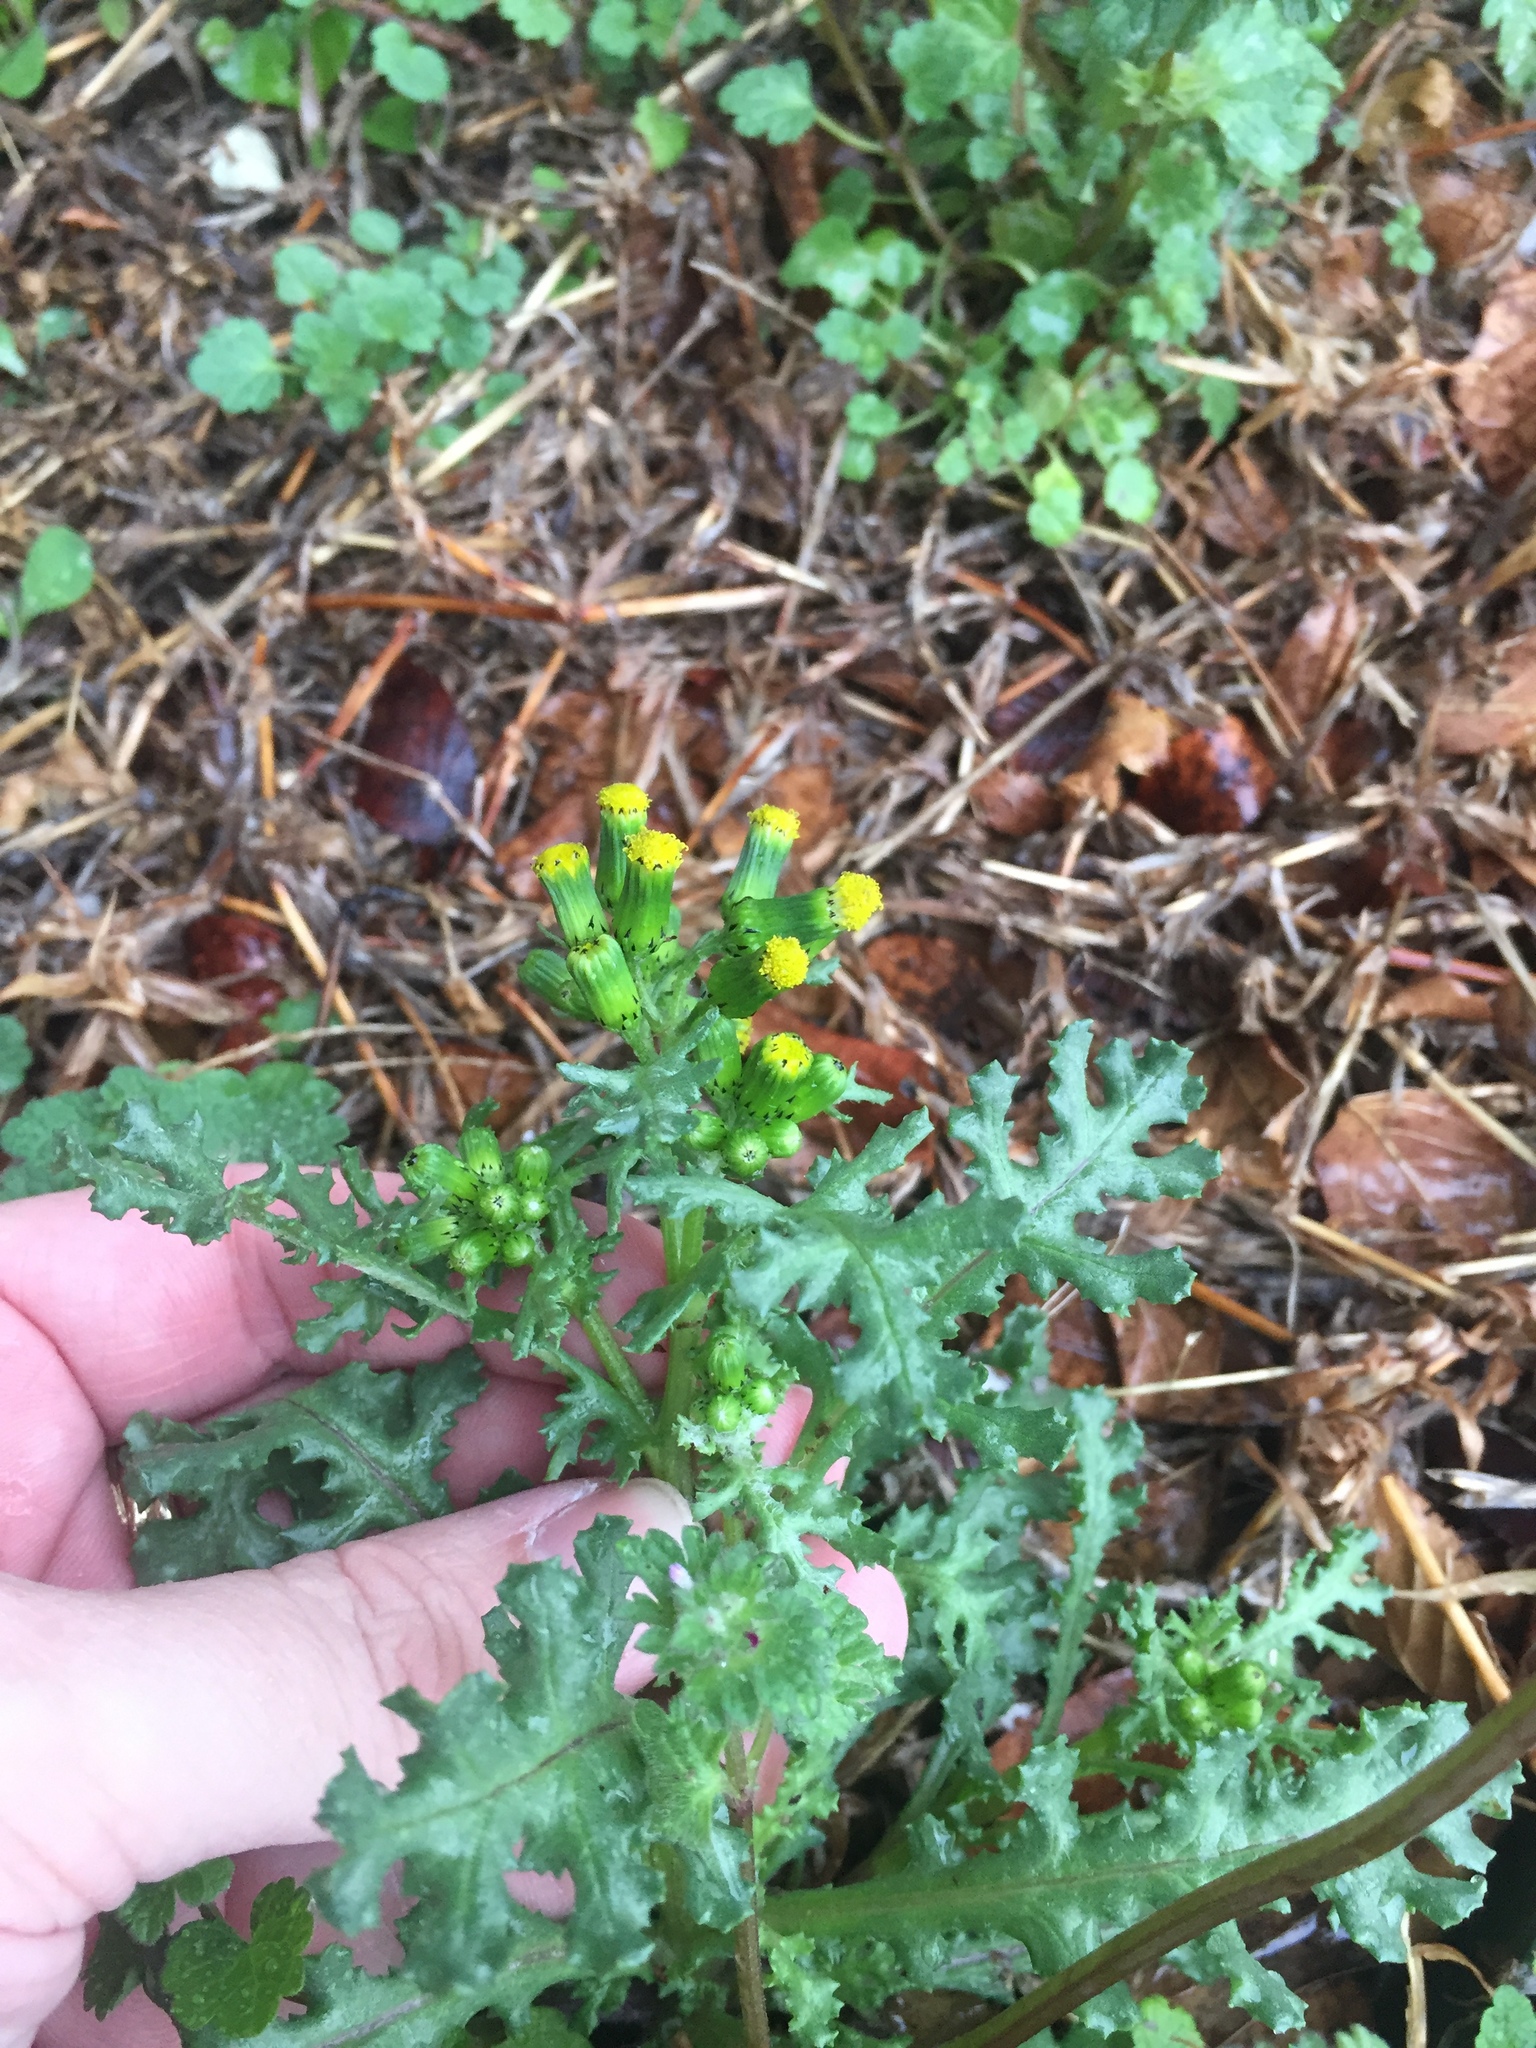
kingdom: Plantae
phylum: Tracheophyta
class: Magnoliopsida
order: Asterales
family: Asteraceae
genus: Senecio
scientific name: Senecio vulgaris
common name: Old-man-in-the-spring
